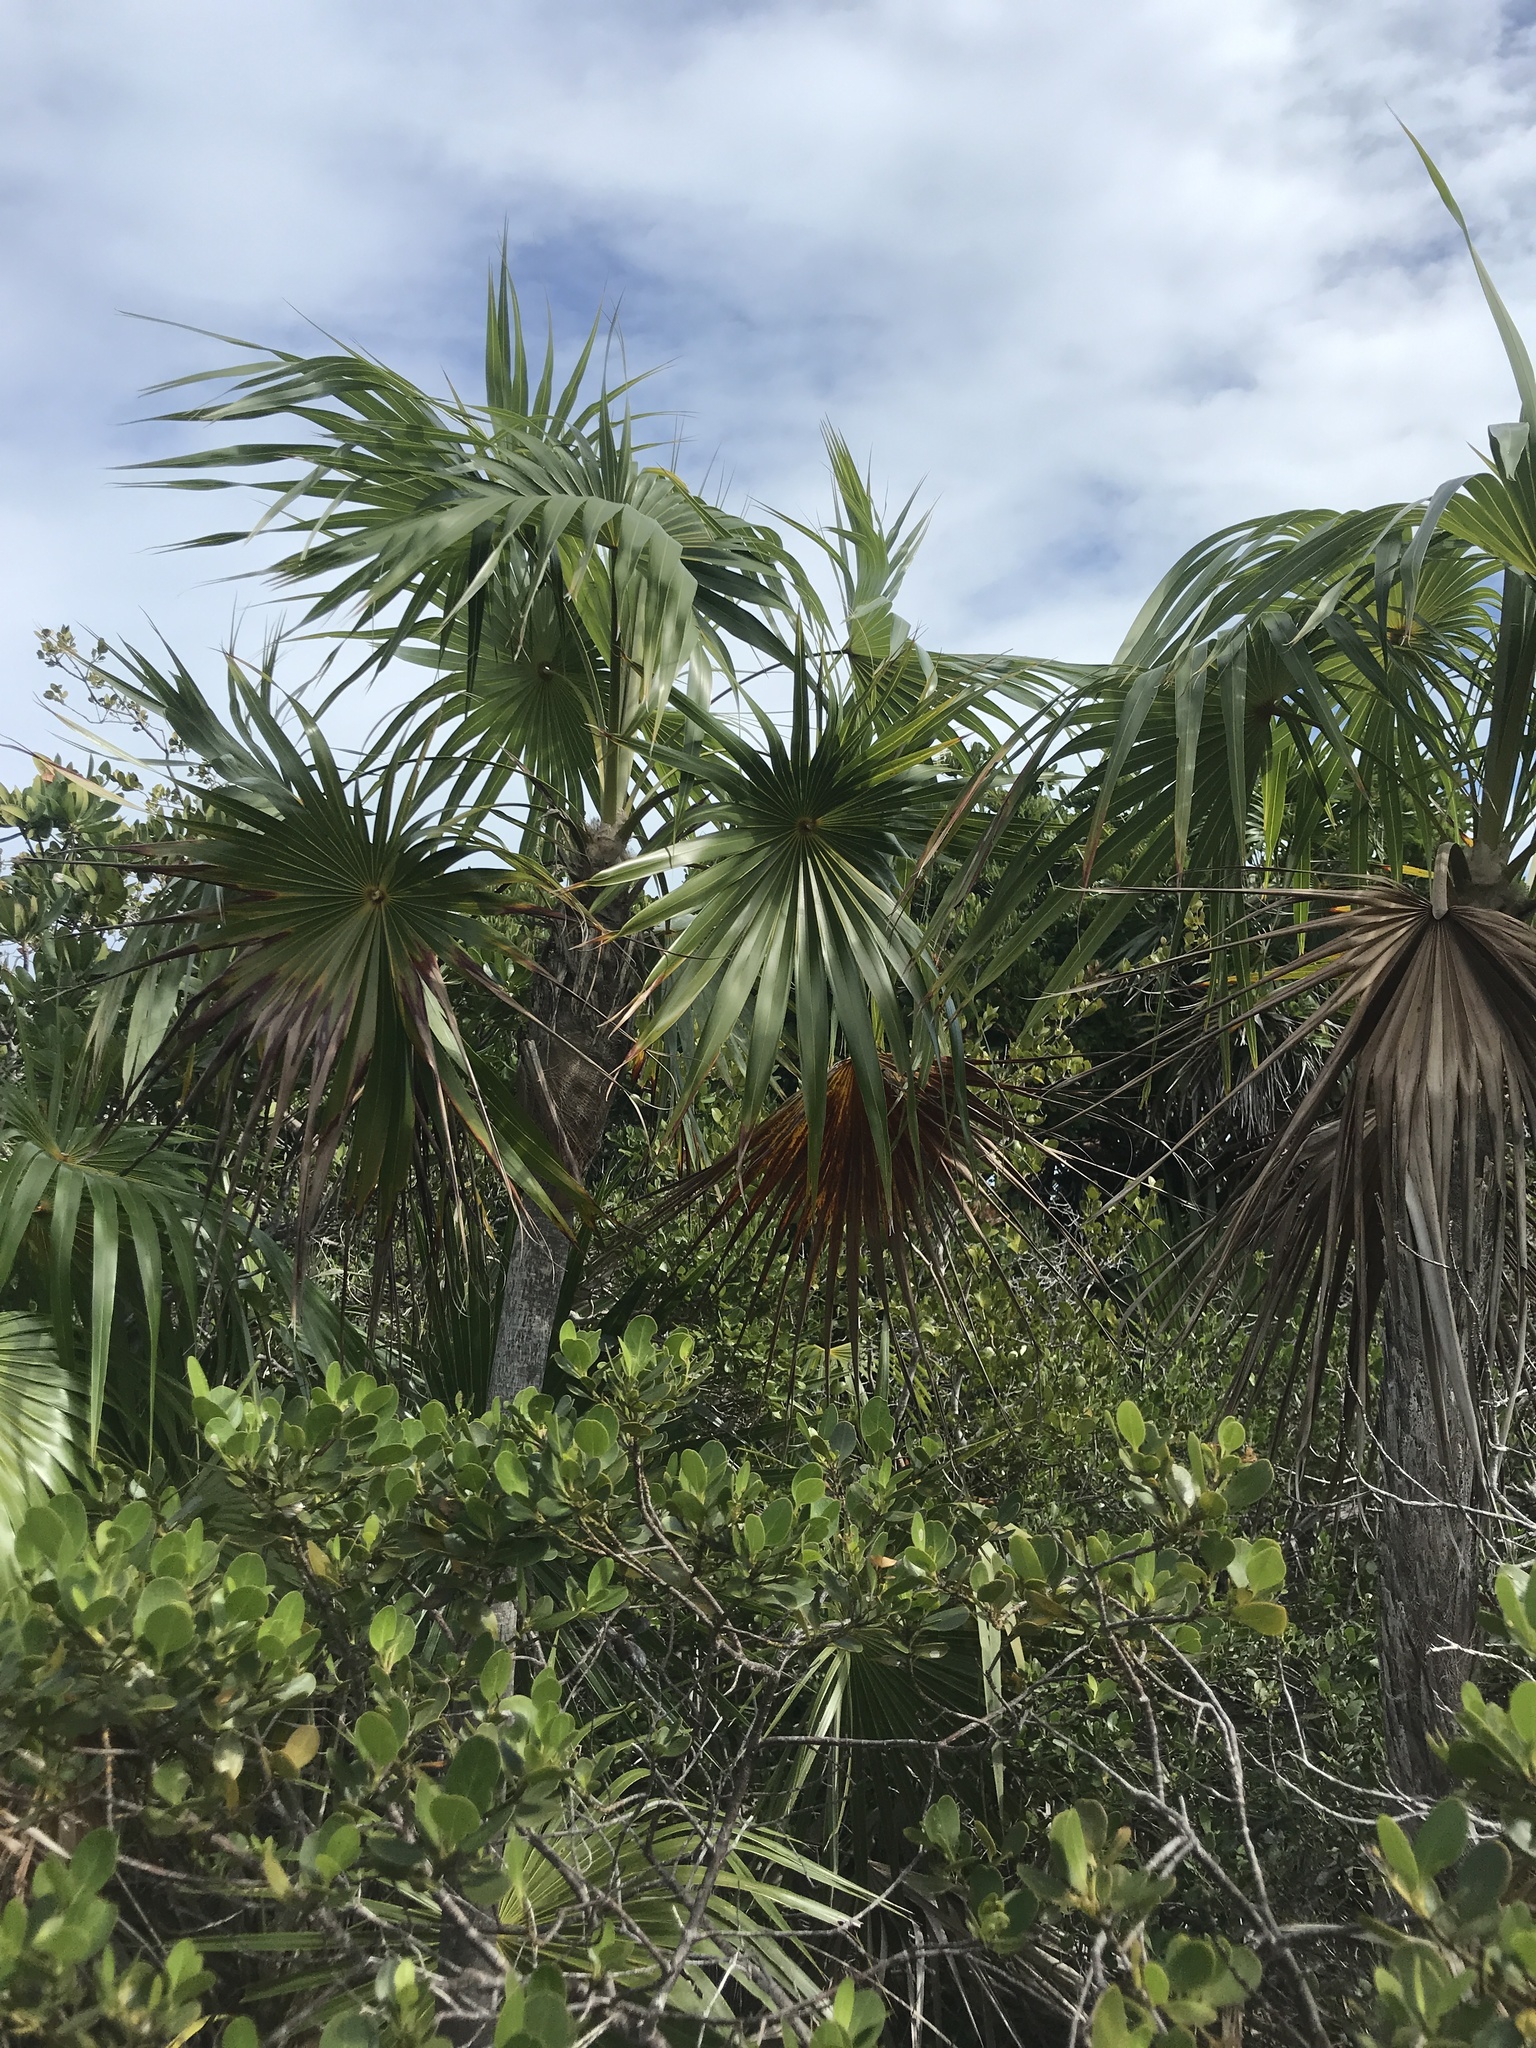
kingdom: Plantae
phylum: Tracheophyta
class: Liliopsida
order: Arecales
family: Arecaceae
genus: Thrinax
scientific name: Thrinax radiata
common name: Florida thatch
